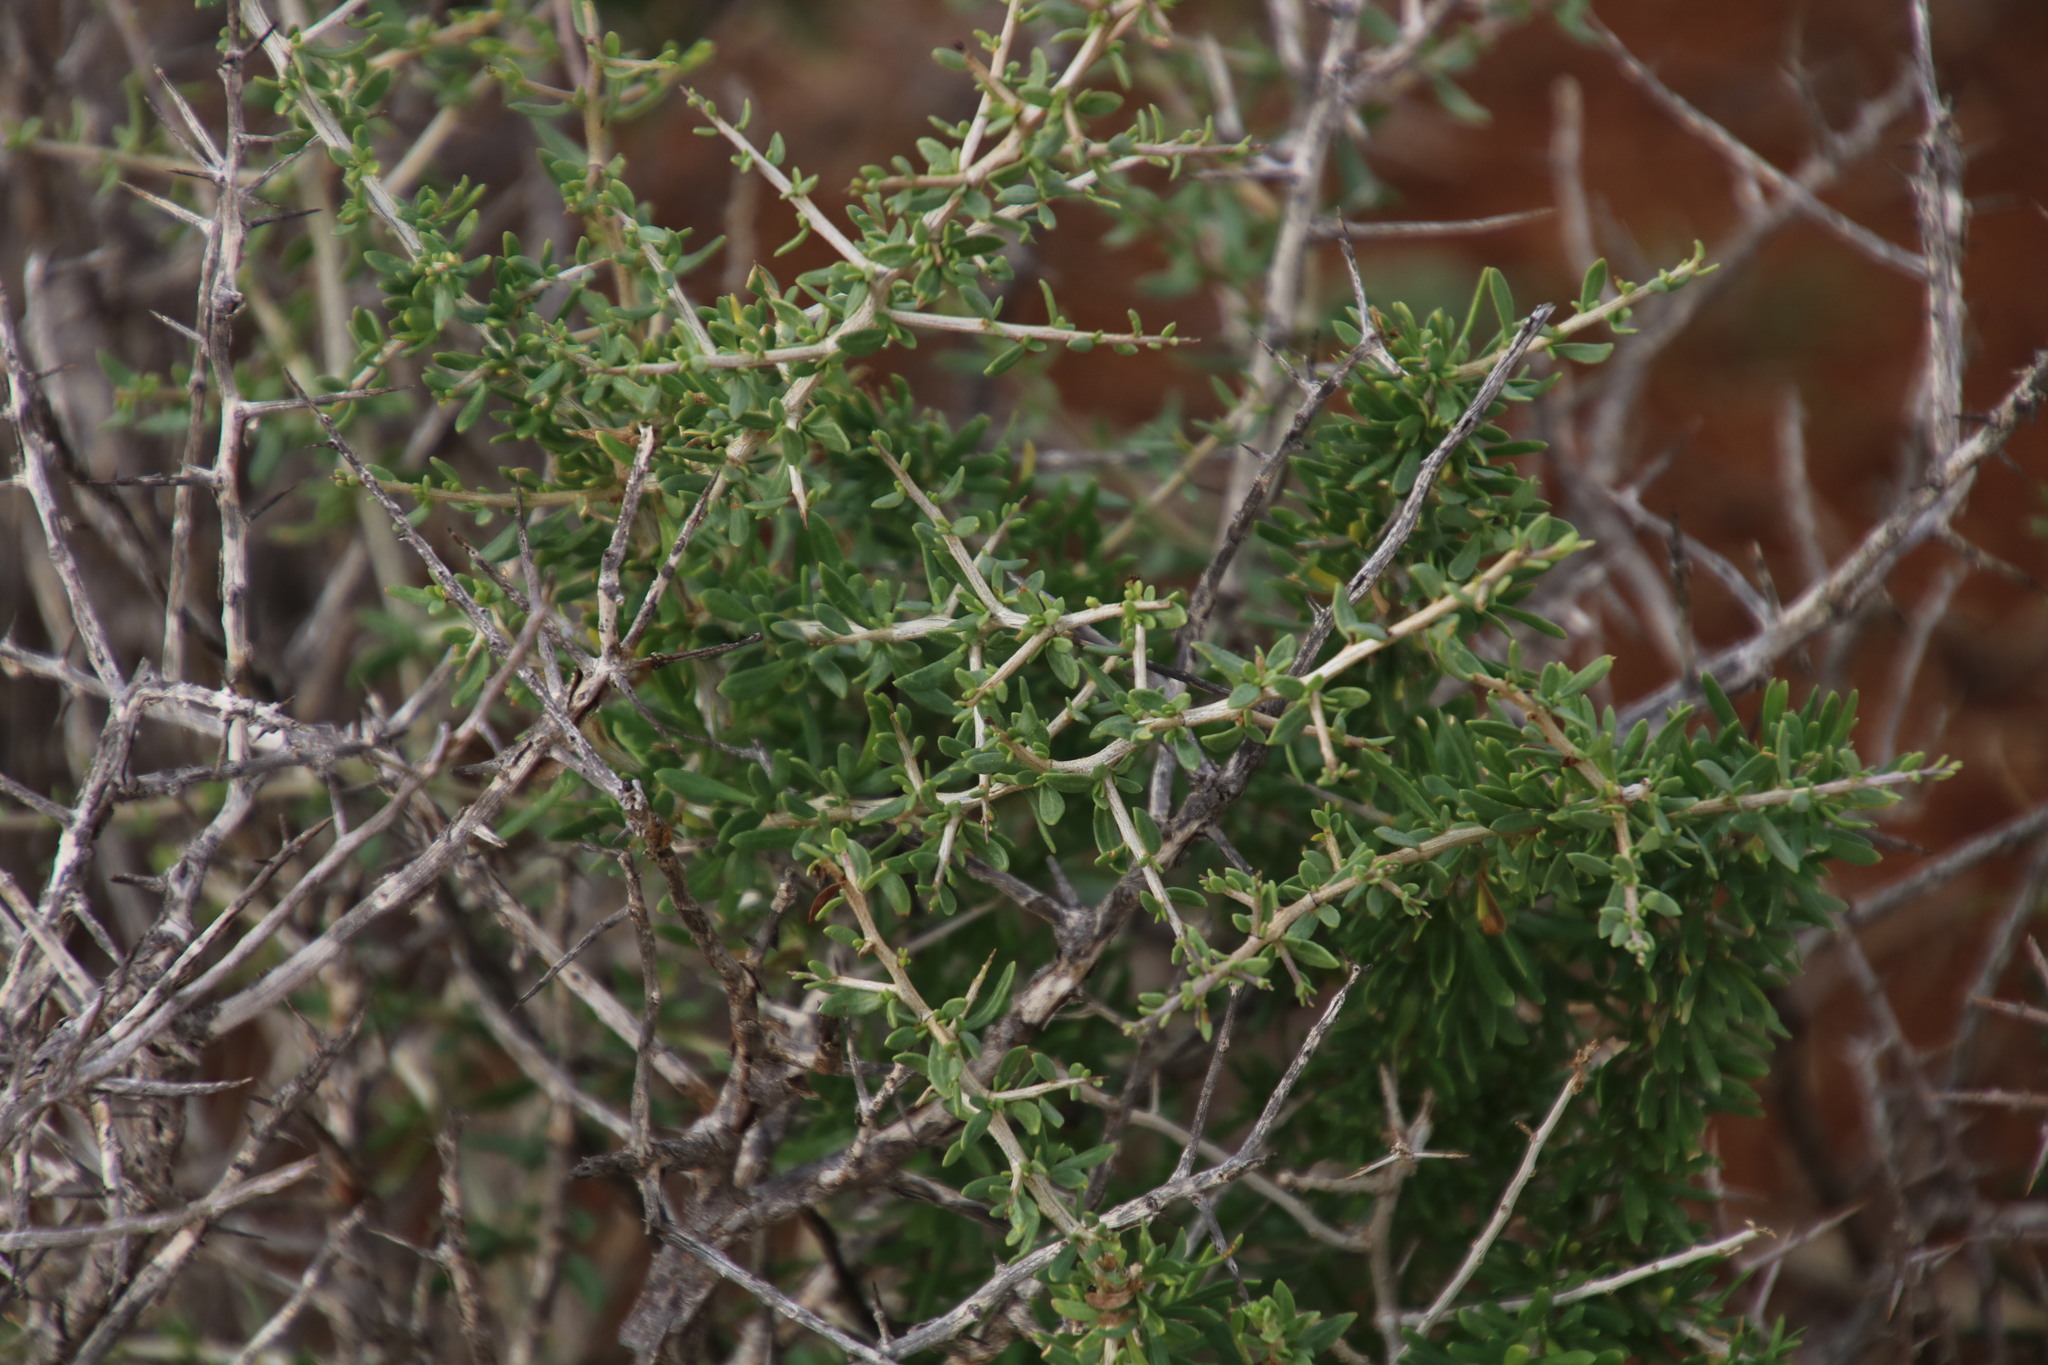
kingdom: Plantae
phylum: Tracheophyta
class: Magnoliopsida
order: Solanales
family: Solanaceae
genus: Lycium
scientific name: Lycium cinereum
